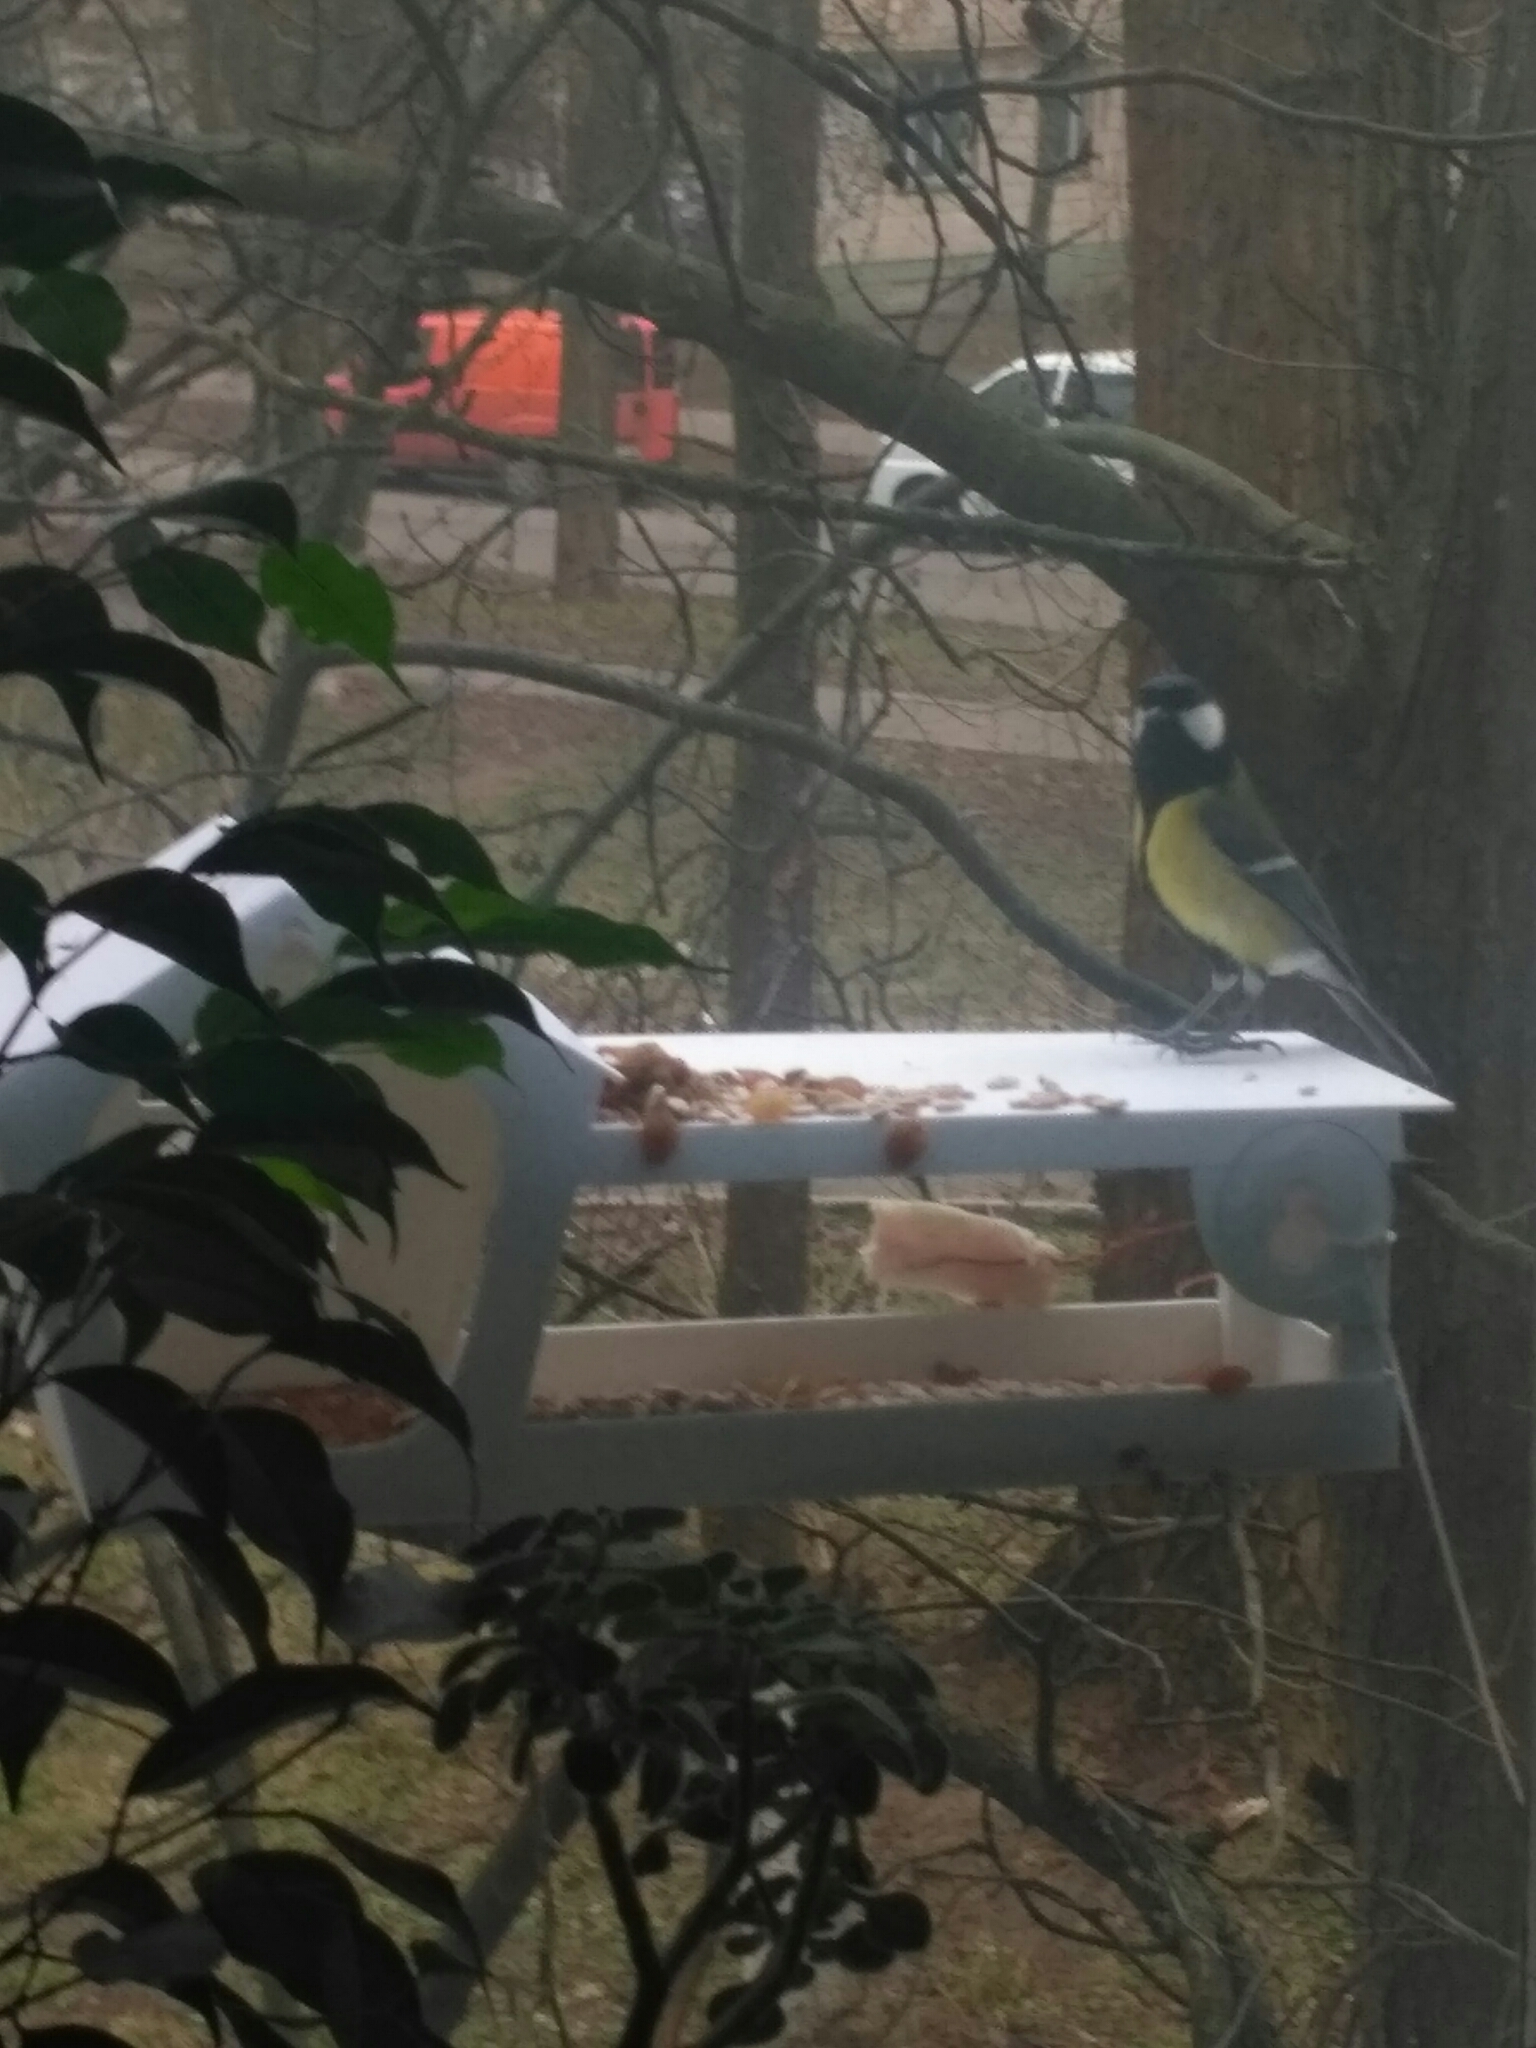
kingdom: Animalia
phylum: Chordata
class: Aves
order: Passeriformes
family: Paridae
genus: Parus
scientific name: Parus major
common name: Great tit
